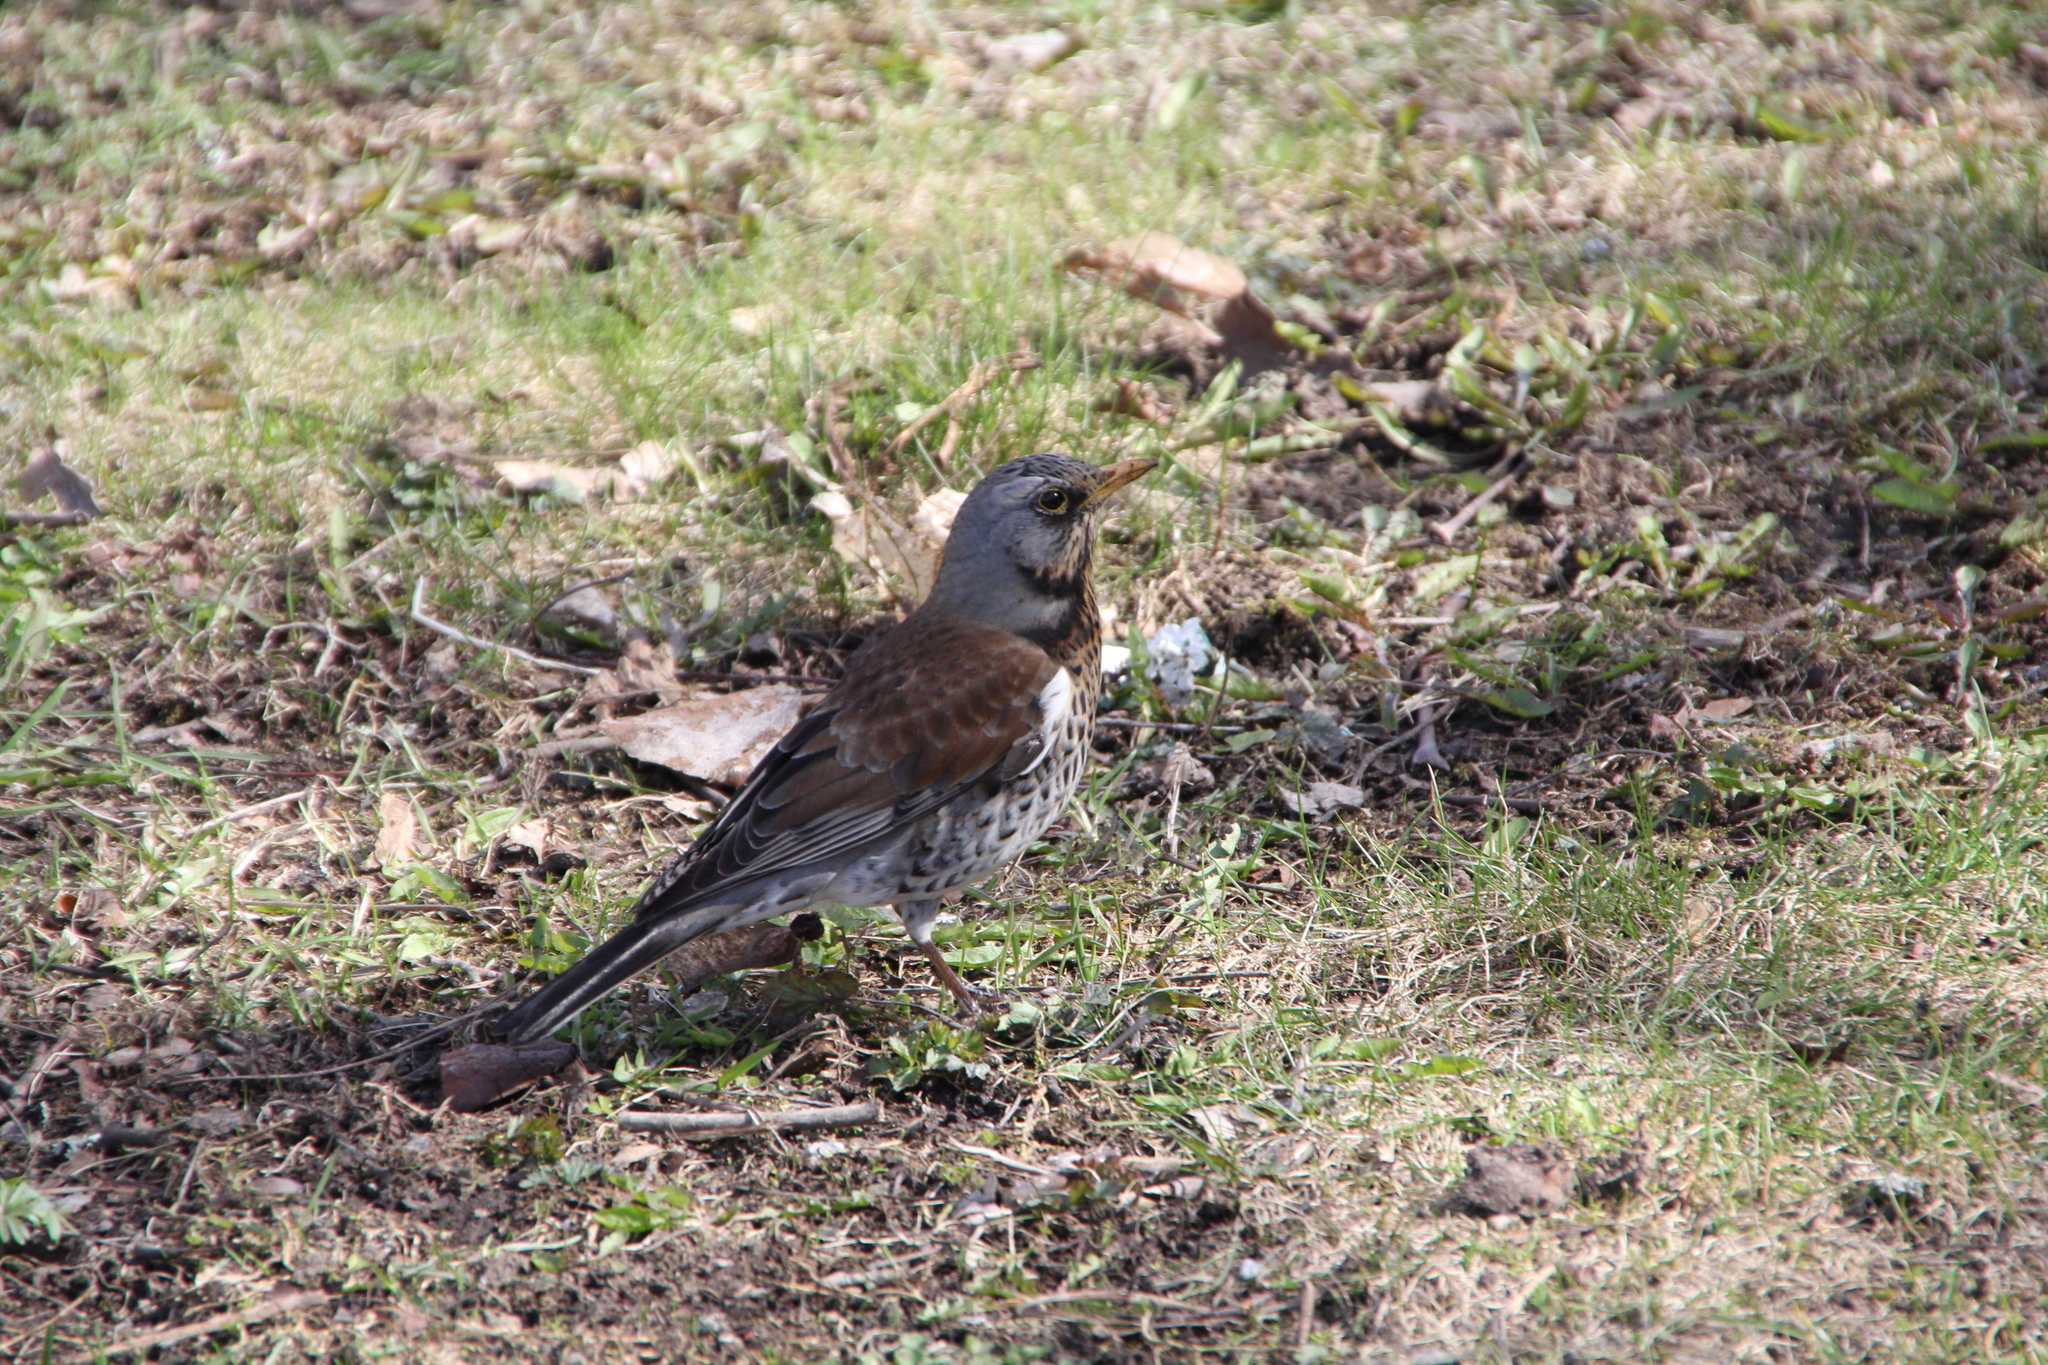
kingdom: Animalia
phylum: Chordata
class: Aves
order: Passeriformes
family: Turdidae
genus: Turdus
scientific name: Turdus pilaris
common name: Fieldfare
